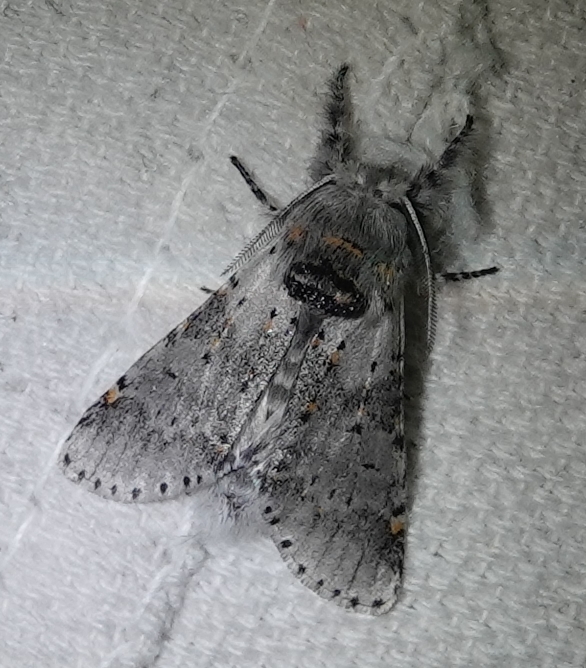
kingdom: Animalia
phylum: Arthropoda
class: Insecta
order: Lepidoptera
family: Notodontidae
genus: Furcula
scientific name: Furcula cinerea
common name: Gray furcula
